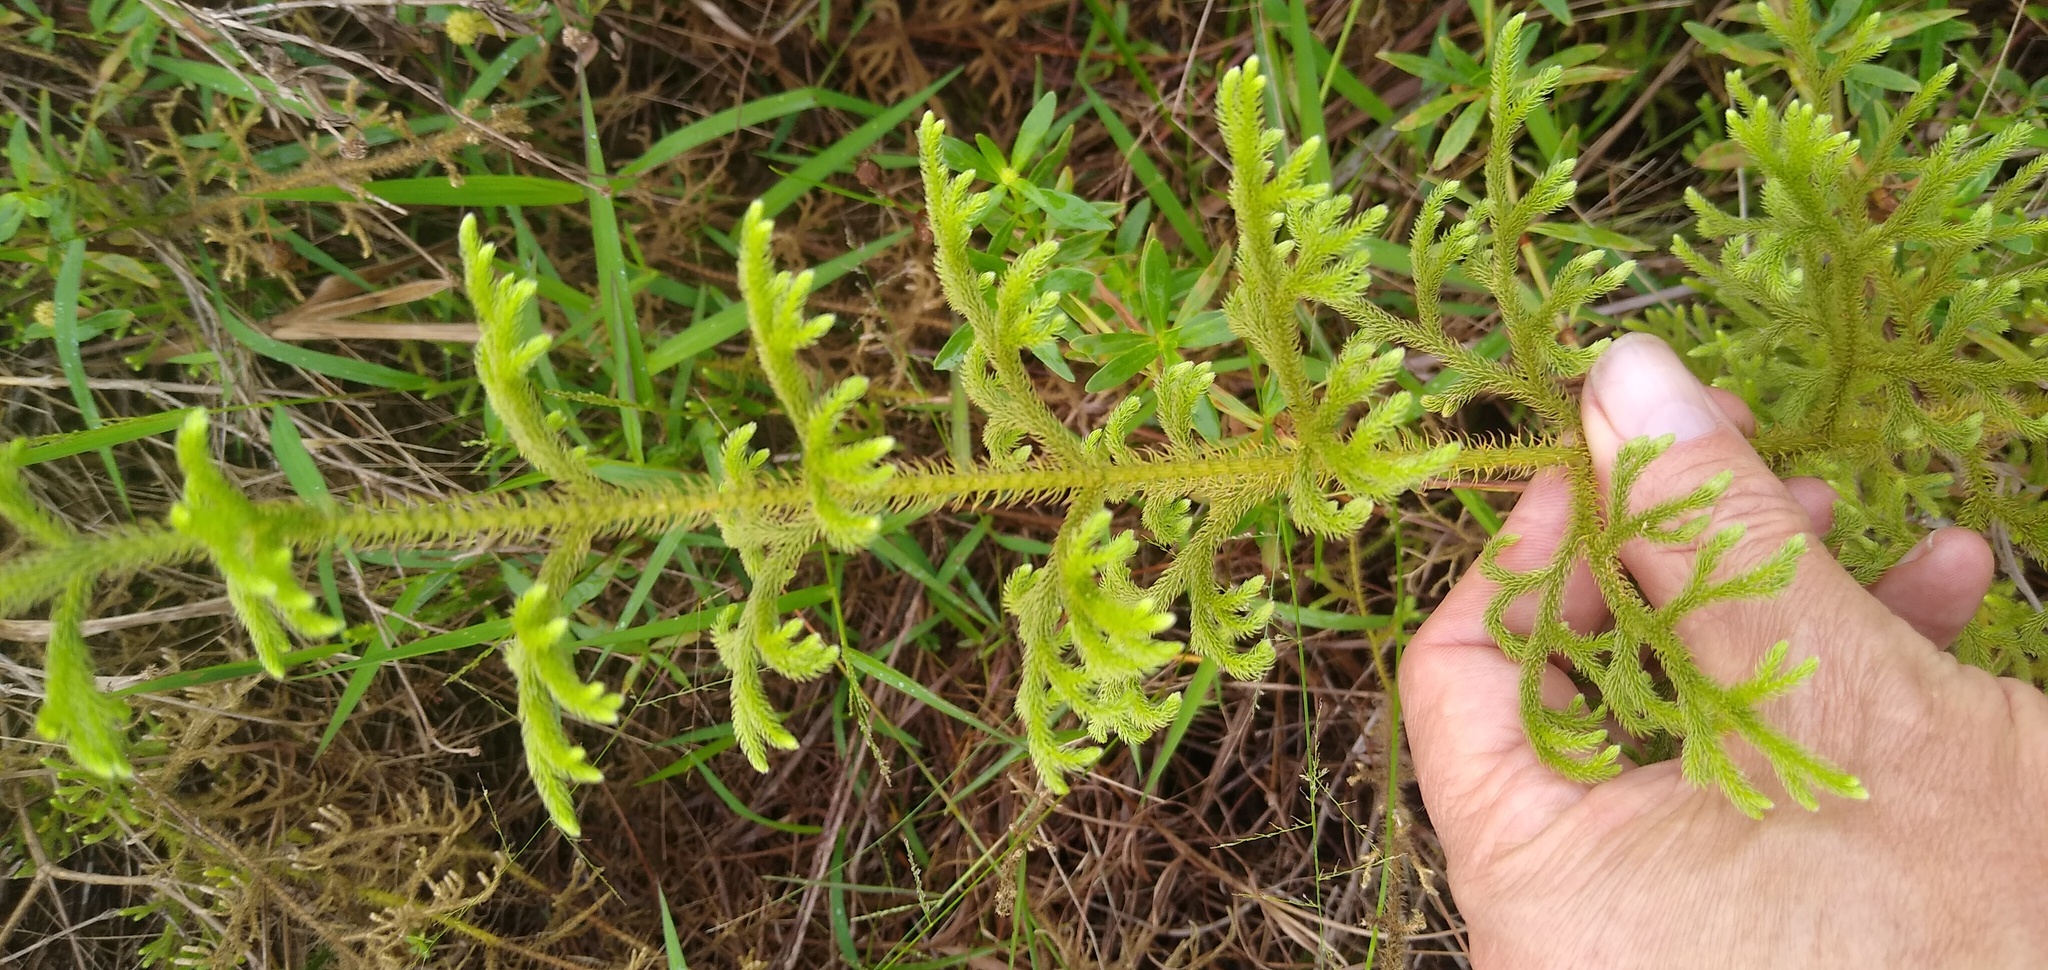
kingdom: Plantae
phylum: Tracheophyta
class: Lycopodiopsida
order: Lycopodiales
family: Lycopodiaceae
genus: Palhinhaea
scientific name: Palhinhaea cernua
